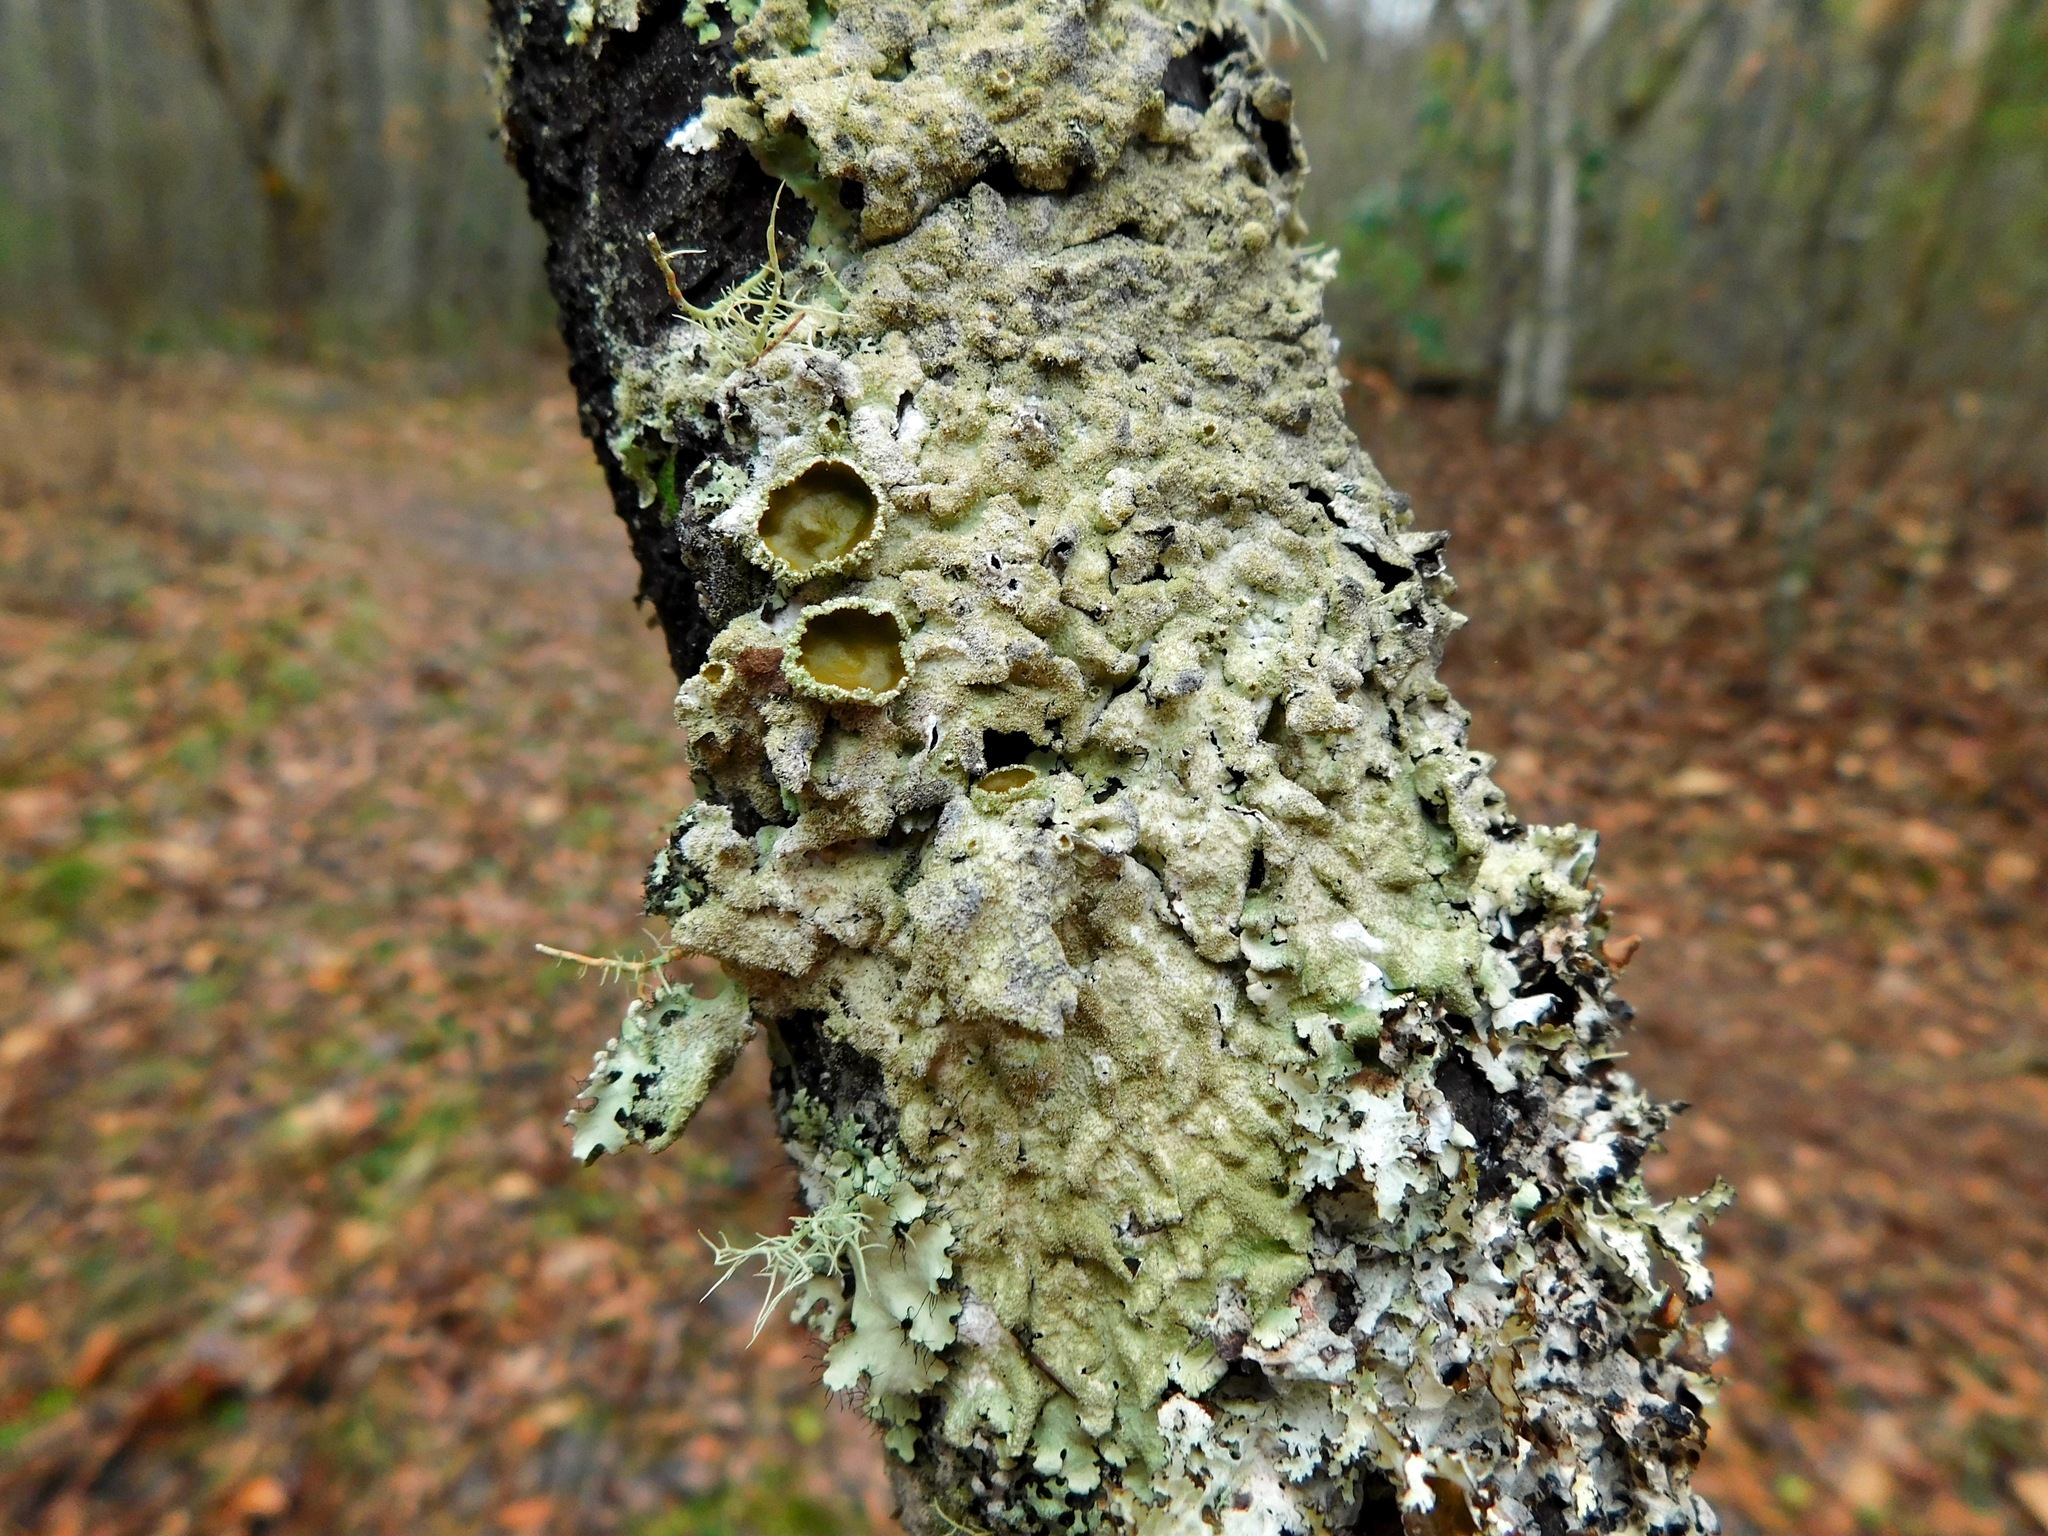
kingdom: Fungi
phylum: Ascomycota
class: Lecanoromycetes
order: Lecanorales
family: Parmeliaceae
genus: Hypotrachyna
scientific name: Hypotrachyna horrescens
